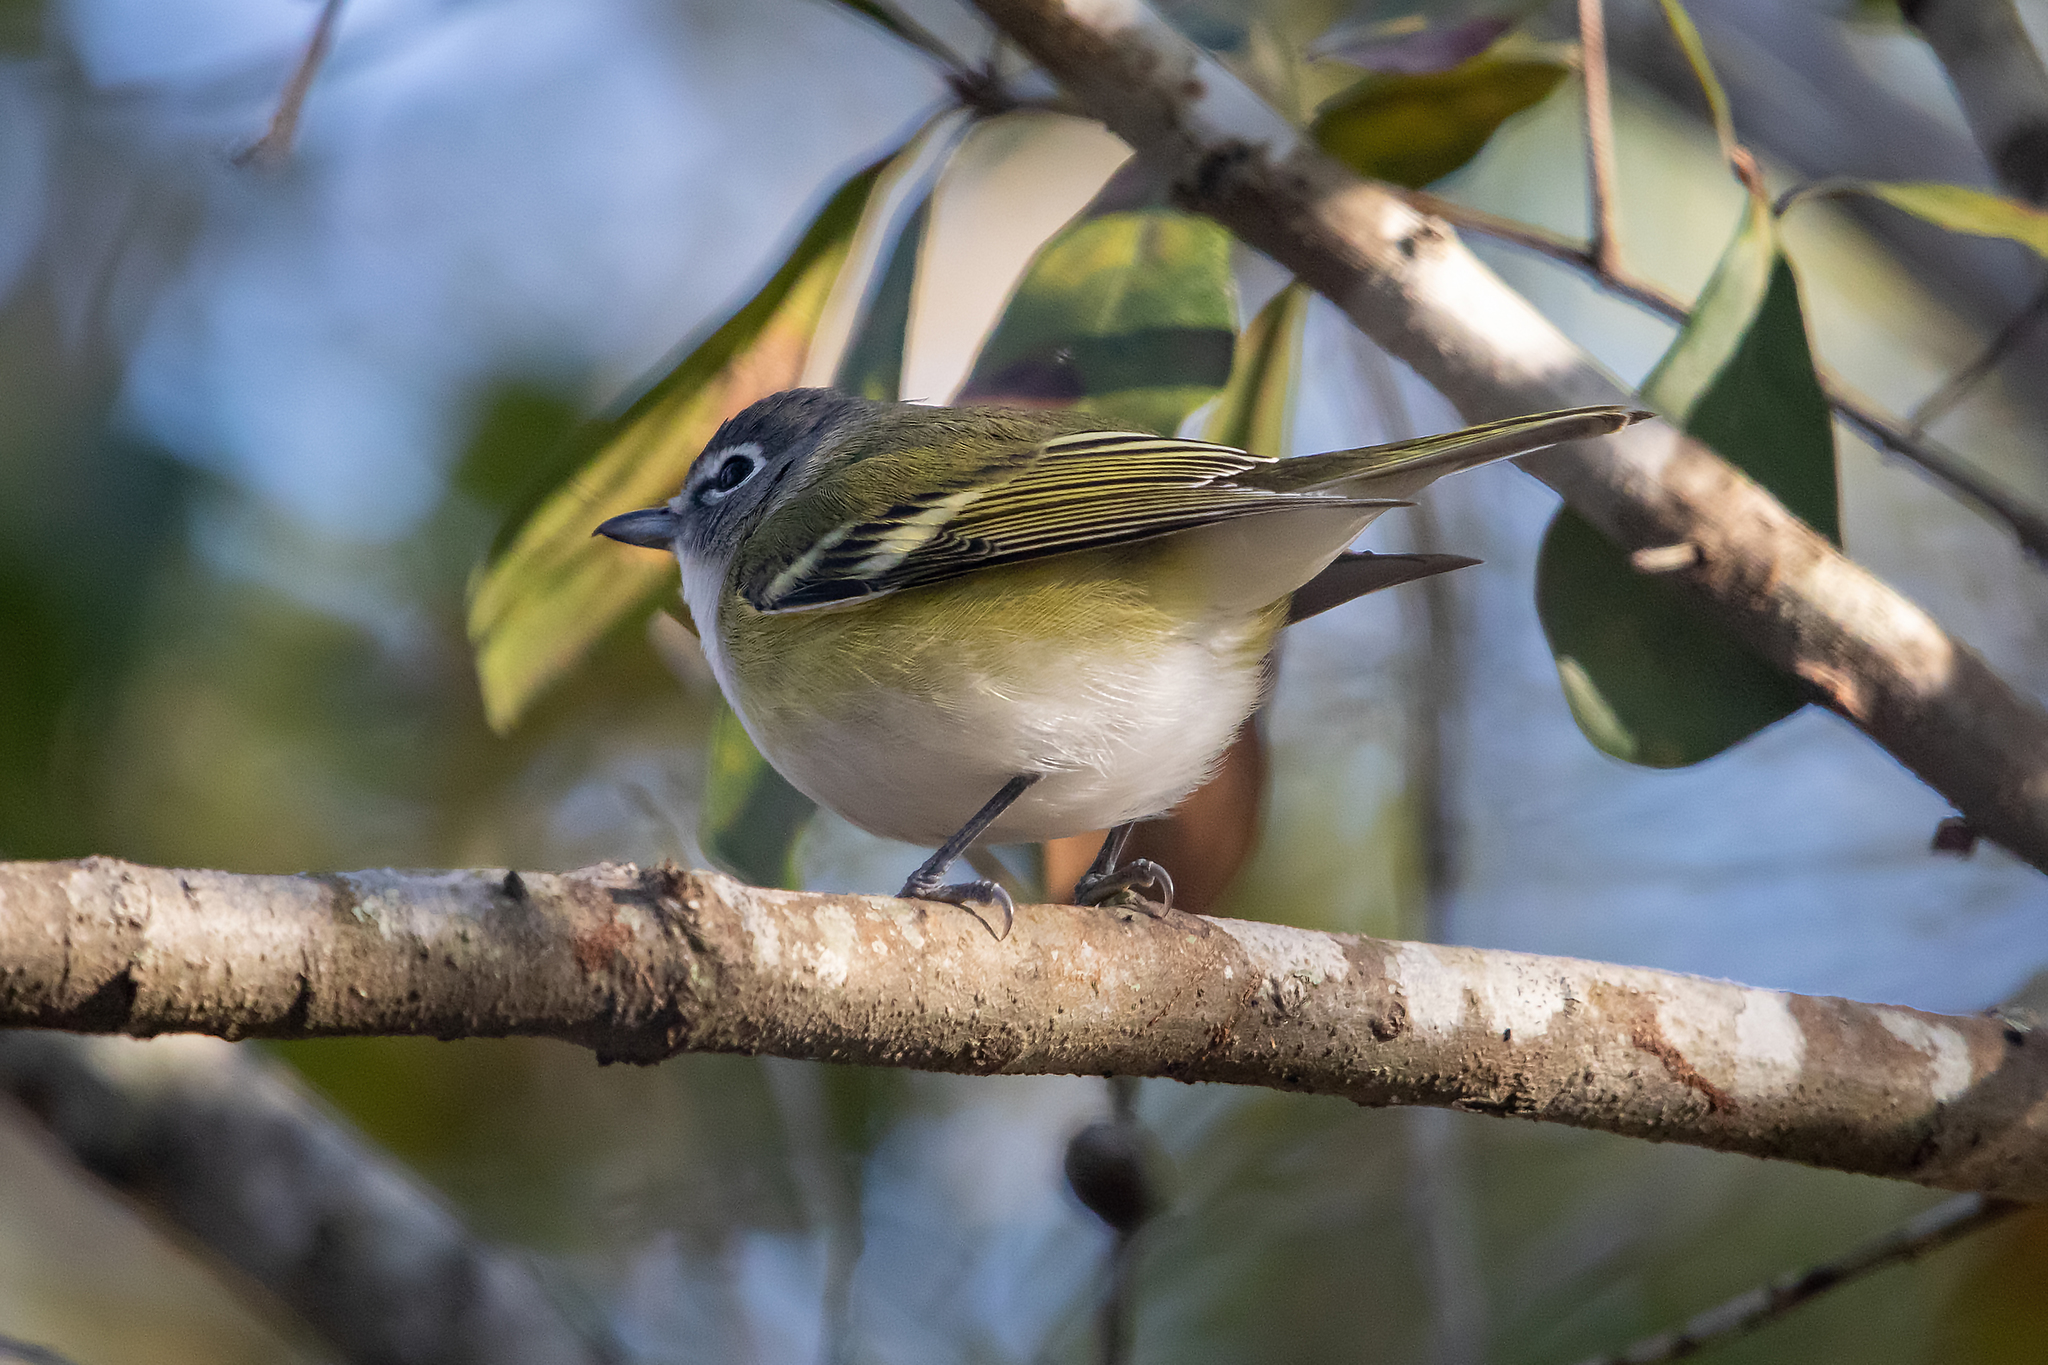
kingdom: Animalia
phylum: Chordata
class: Aves
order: Passeriformes
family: Vireonidae
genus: Vireo
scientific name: Vireo solitarius
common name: Blue-headed vireo
